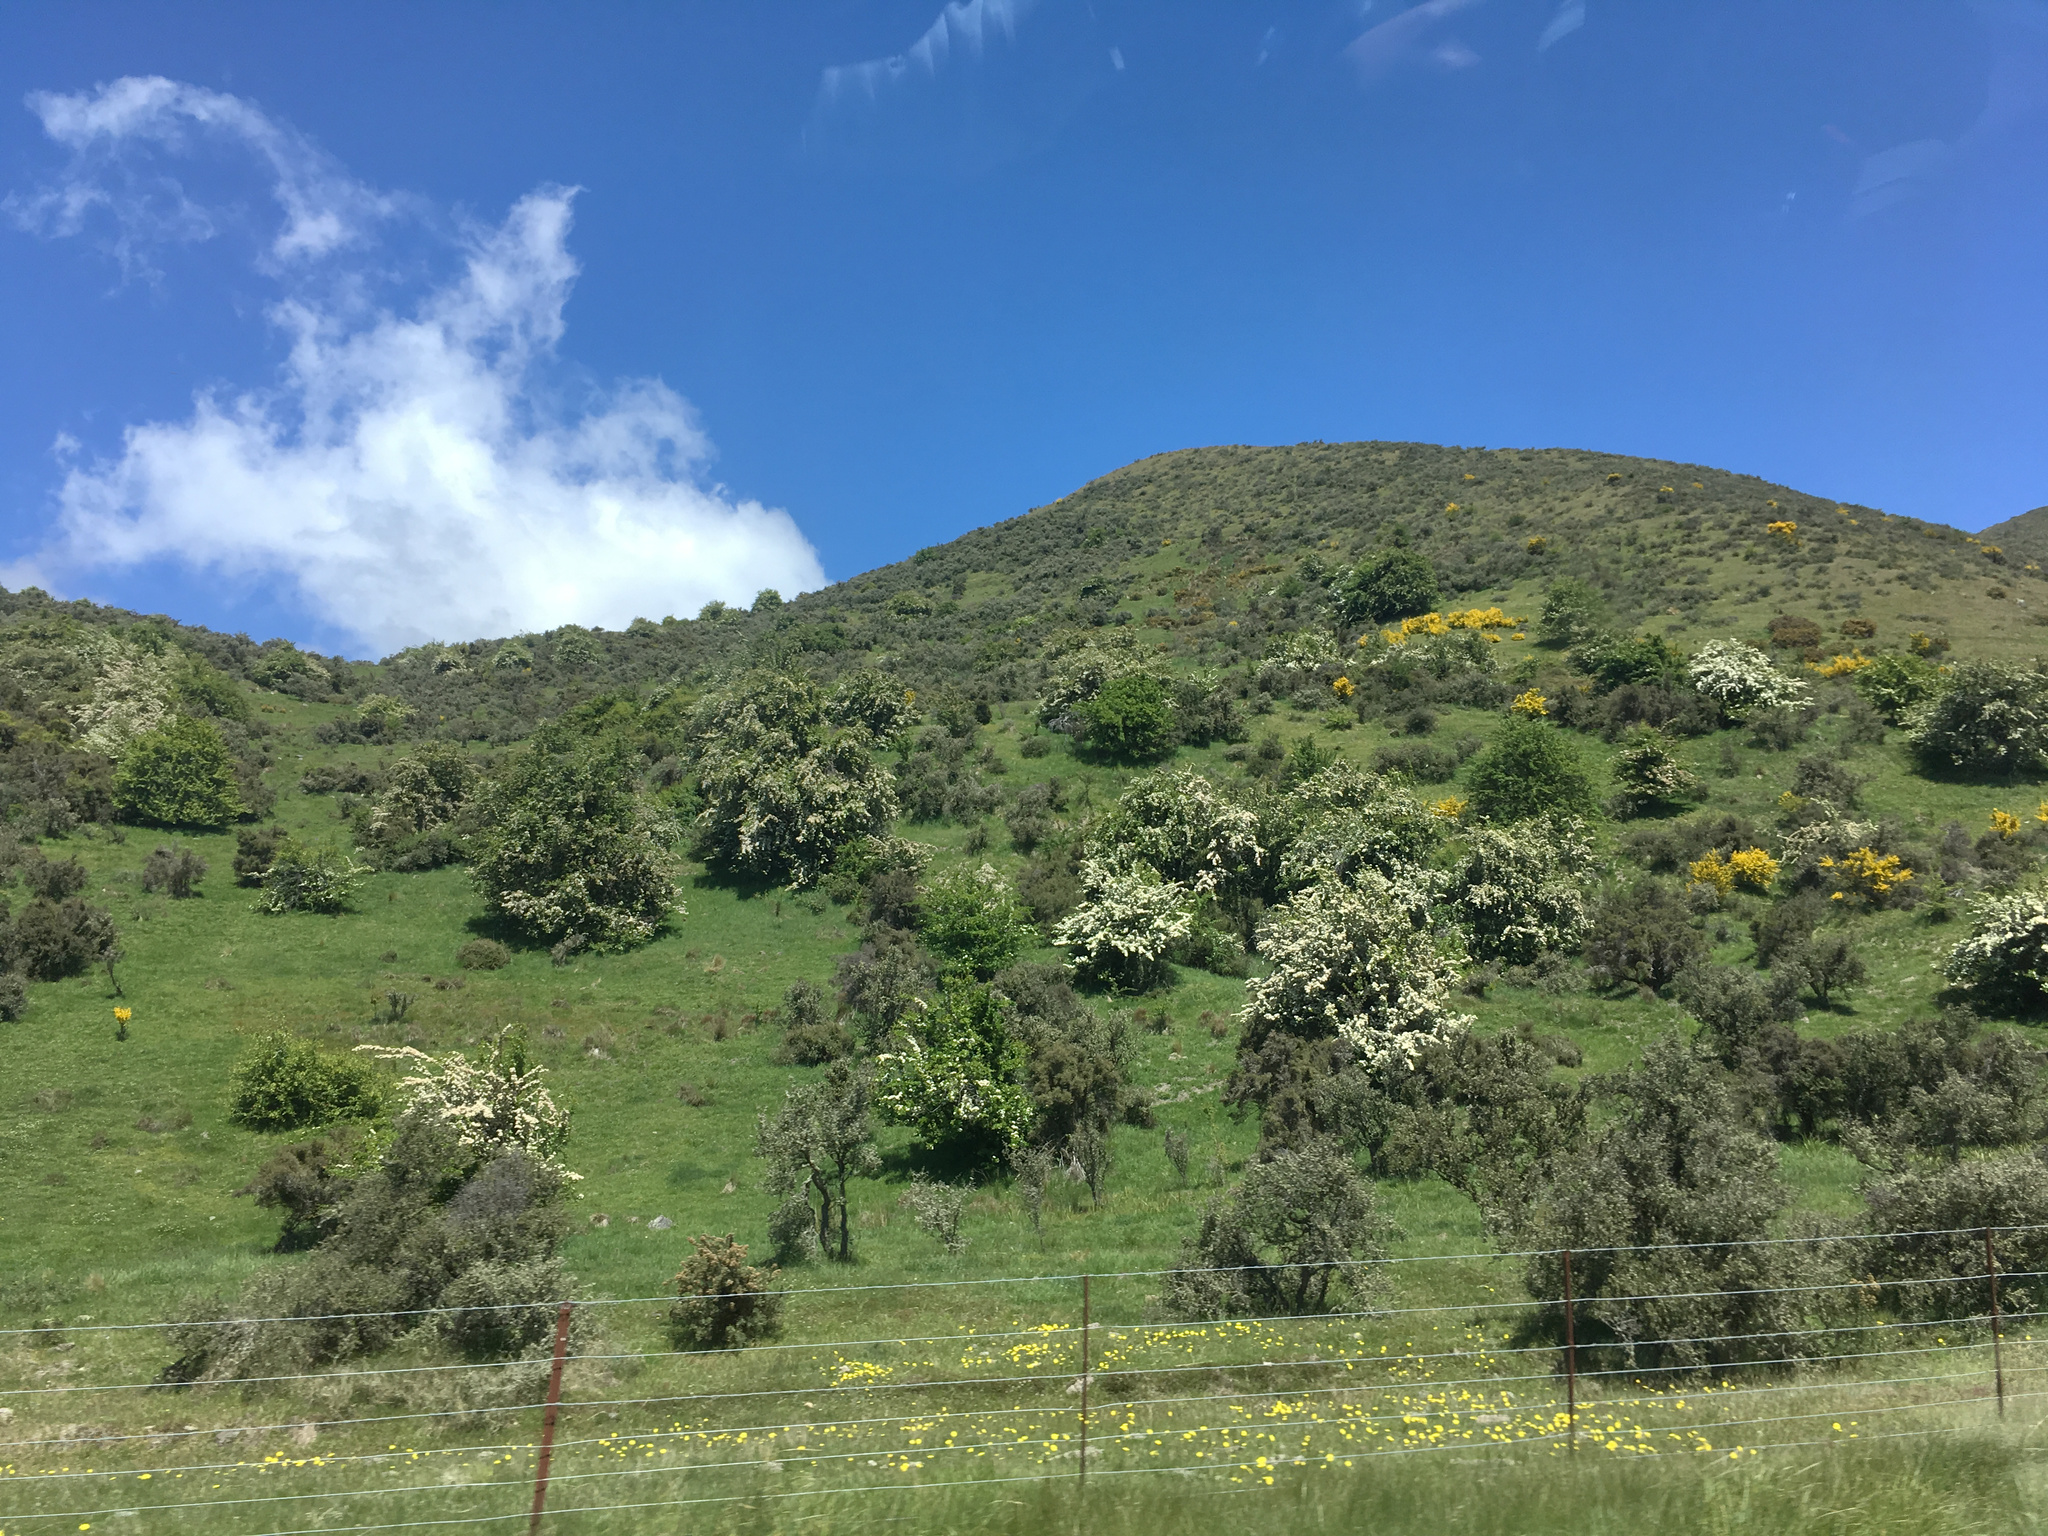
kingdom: Plantae
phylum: Tracheophyta
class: Magnoliopsida
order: Rosales
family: Rosaceae
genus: Crataegus
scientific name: Crataegus monogyna
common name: Hawthorn
